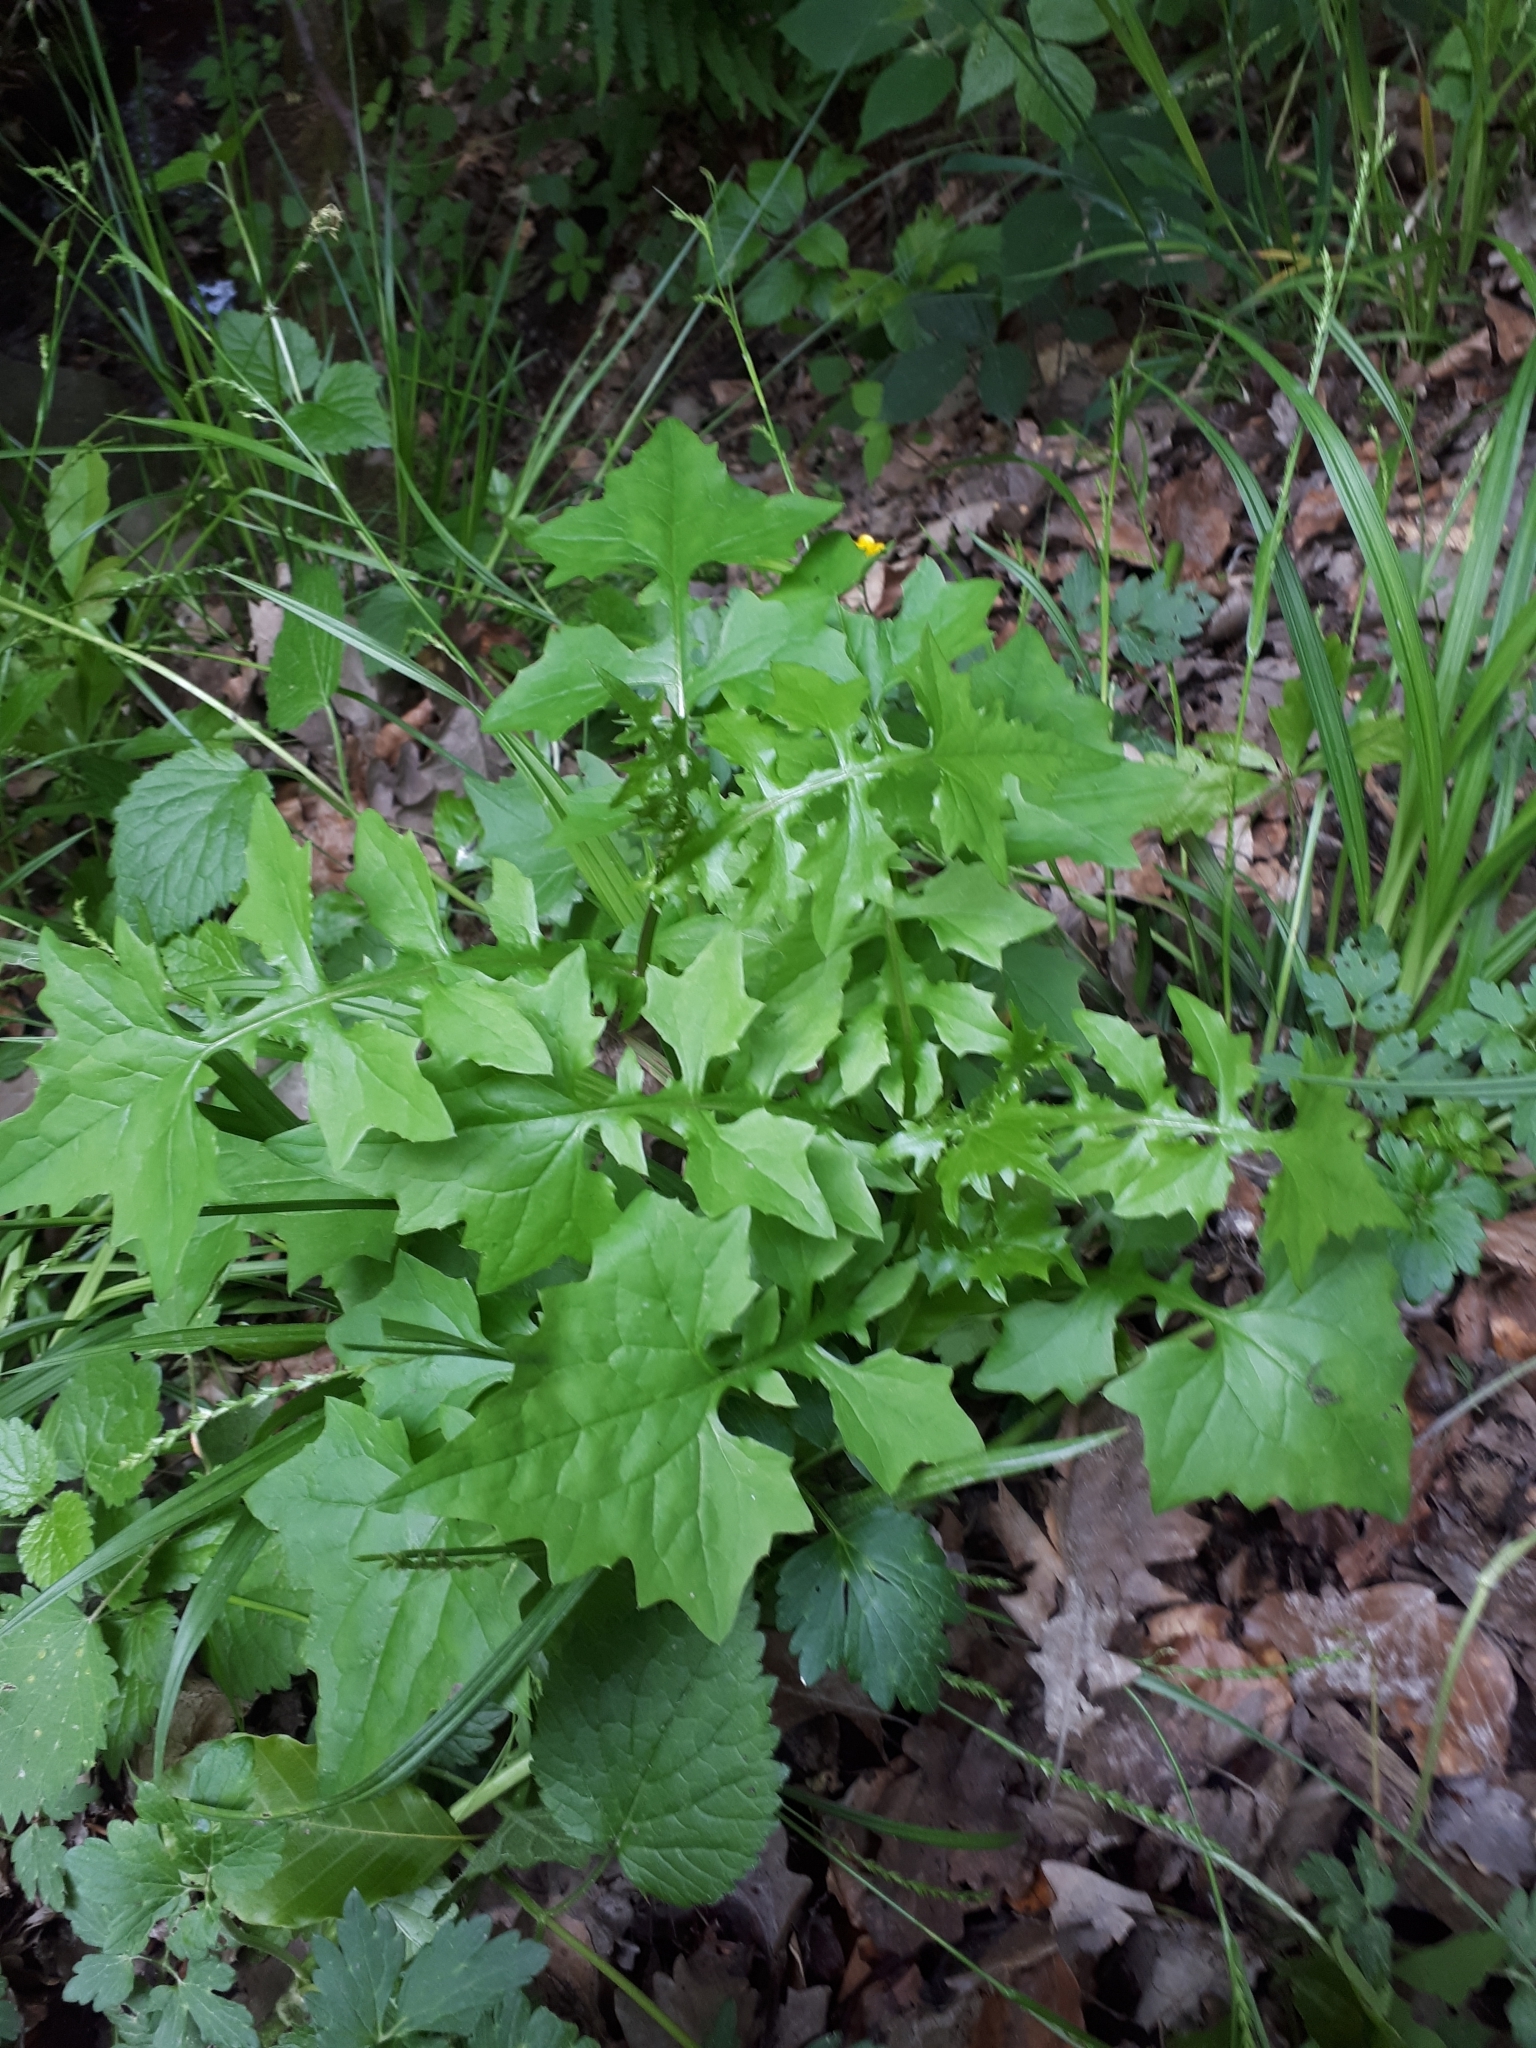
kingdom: Plantae
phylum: Tracheophyta
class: Magnoliopsida
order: Asterales
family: Asteraceae
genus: Mycelis
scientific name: Mycelis muralis
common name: Wall lettuce
